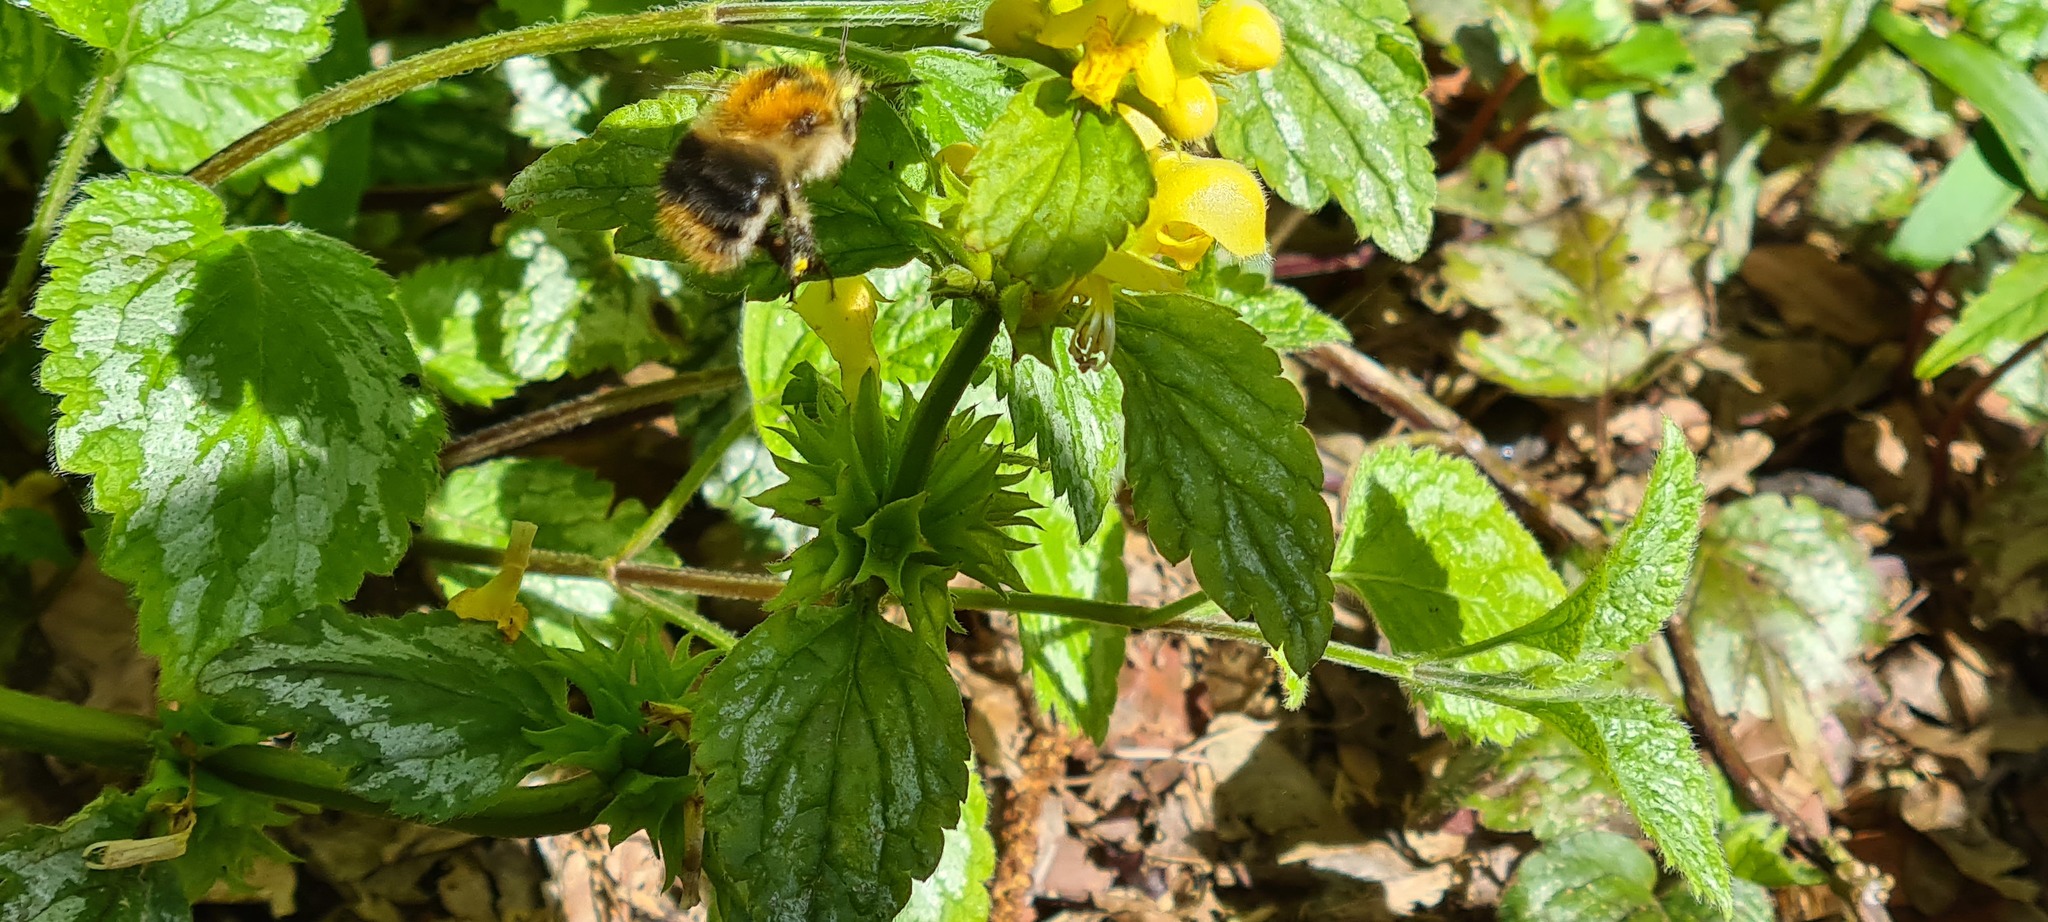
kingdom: Plantae
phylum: Tracheophyta
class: Magnoliopsida
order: Lamiales
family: Lamiaceae
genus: Lamium
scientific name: Lamium galeobdolon
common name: Yellow archangel
